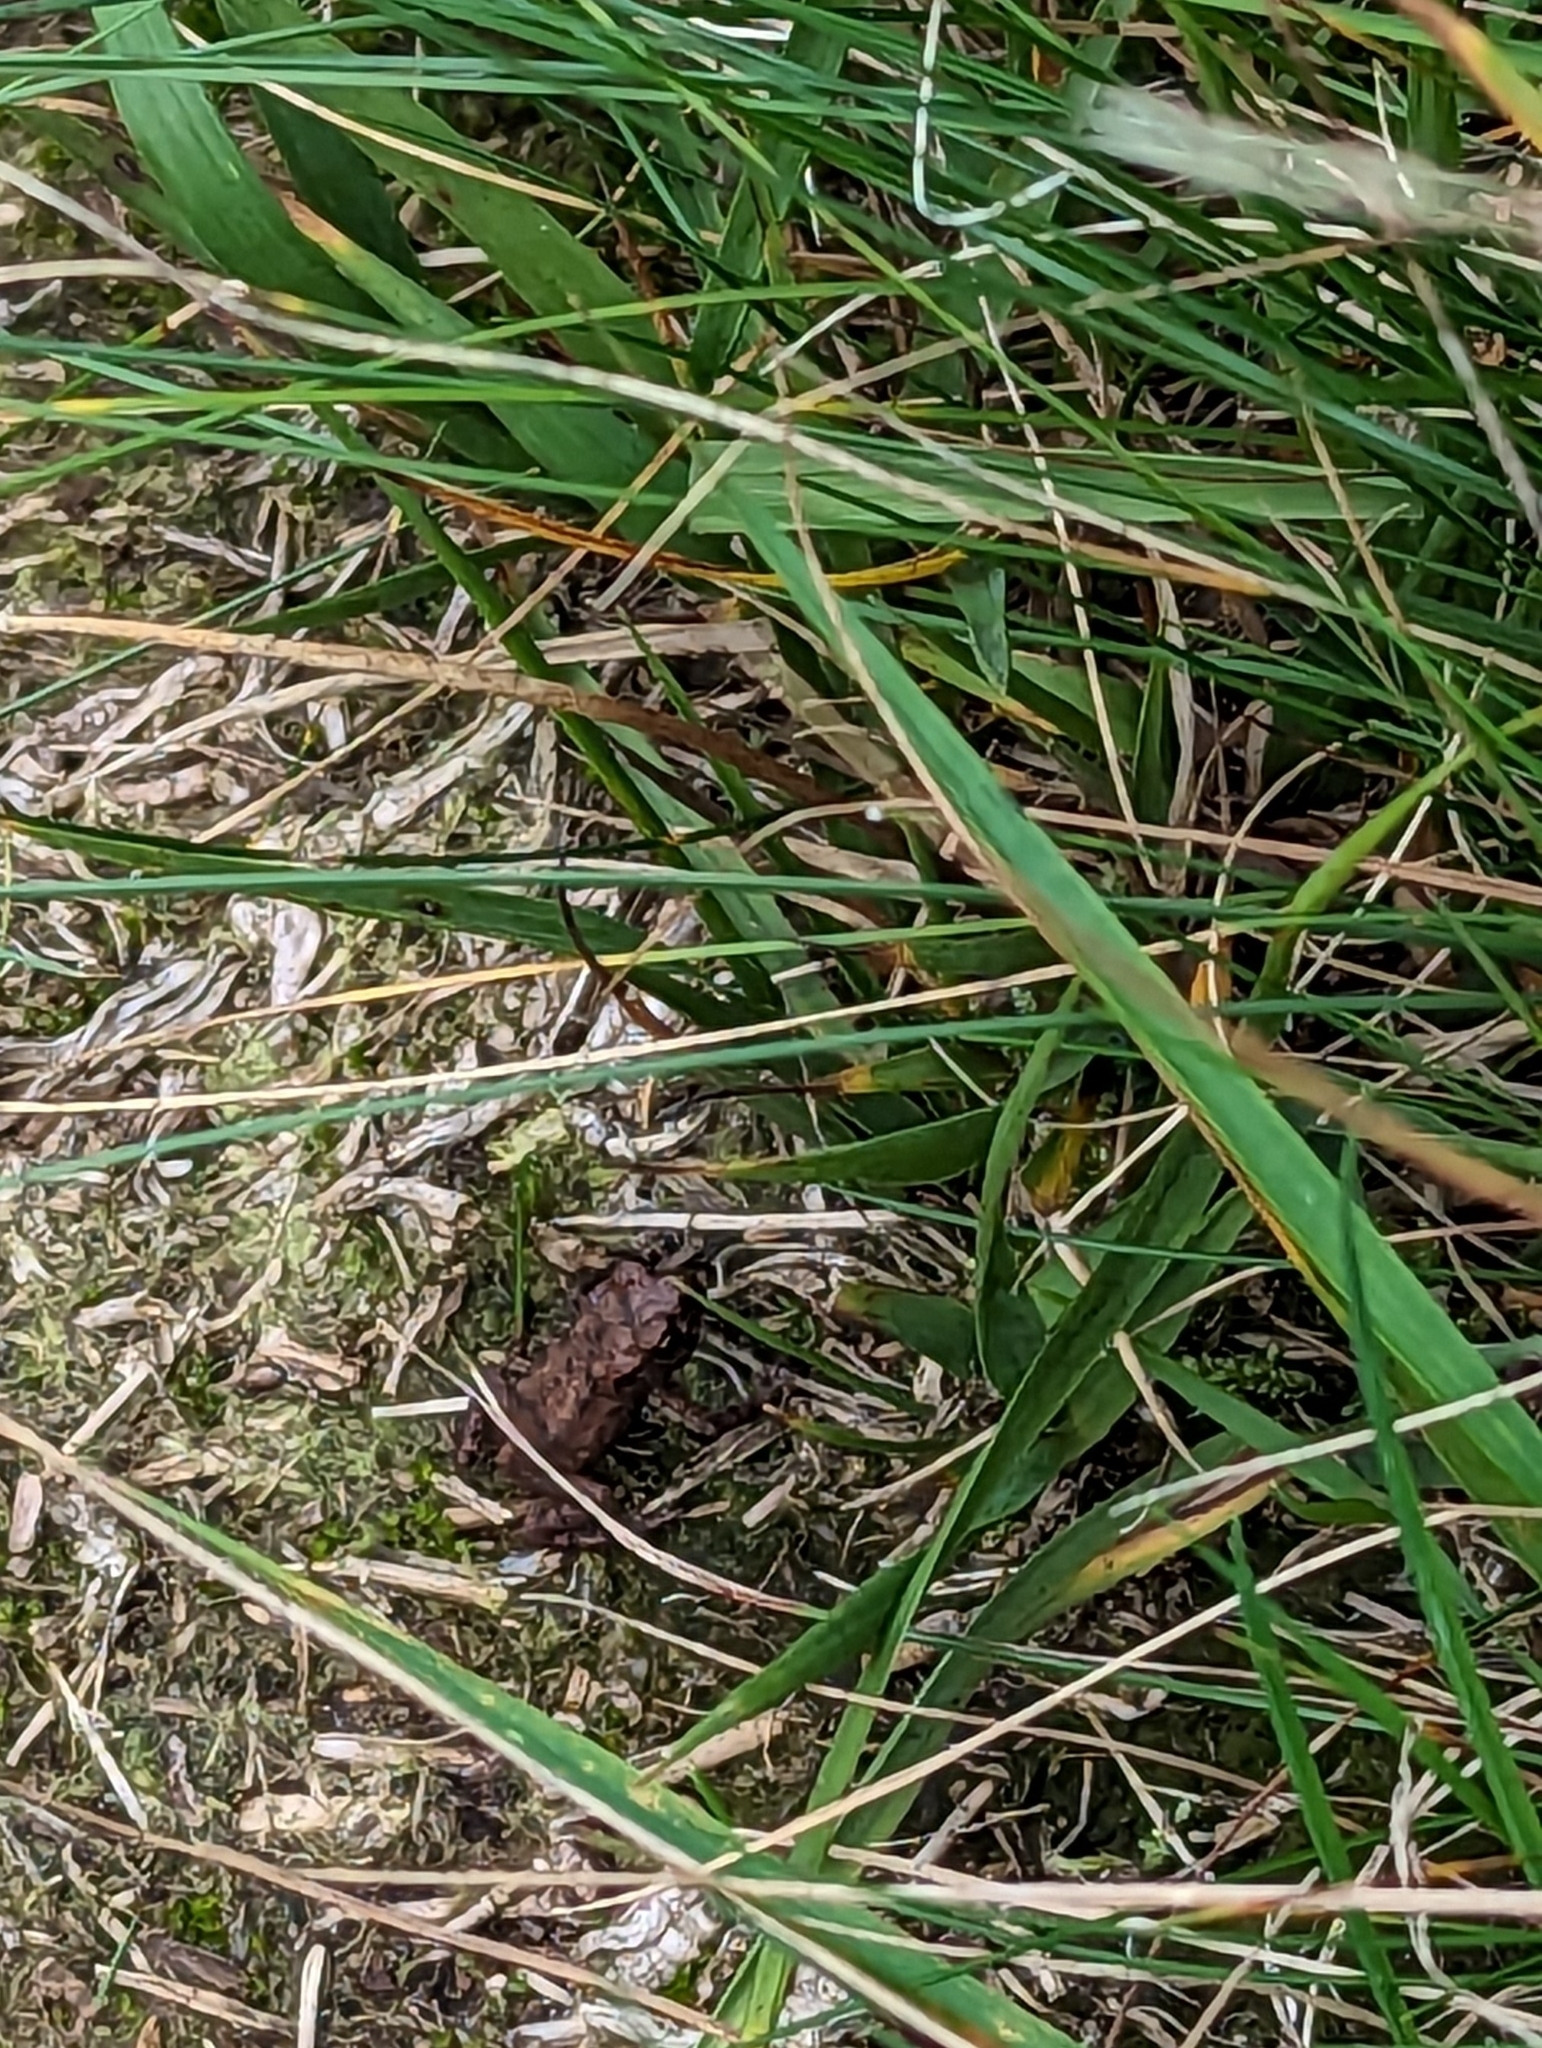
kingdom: Animalia
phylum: Chordata
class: Amphibia
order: Anura
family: Bufonidae
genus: Bufo
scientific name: Bufo bufo
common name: Common toad
